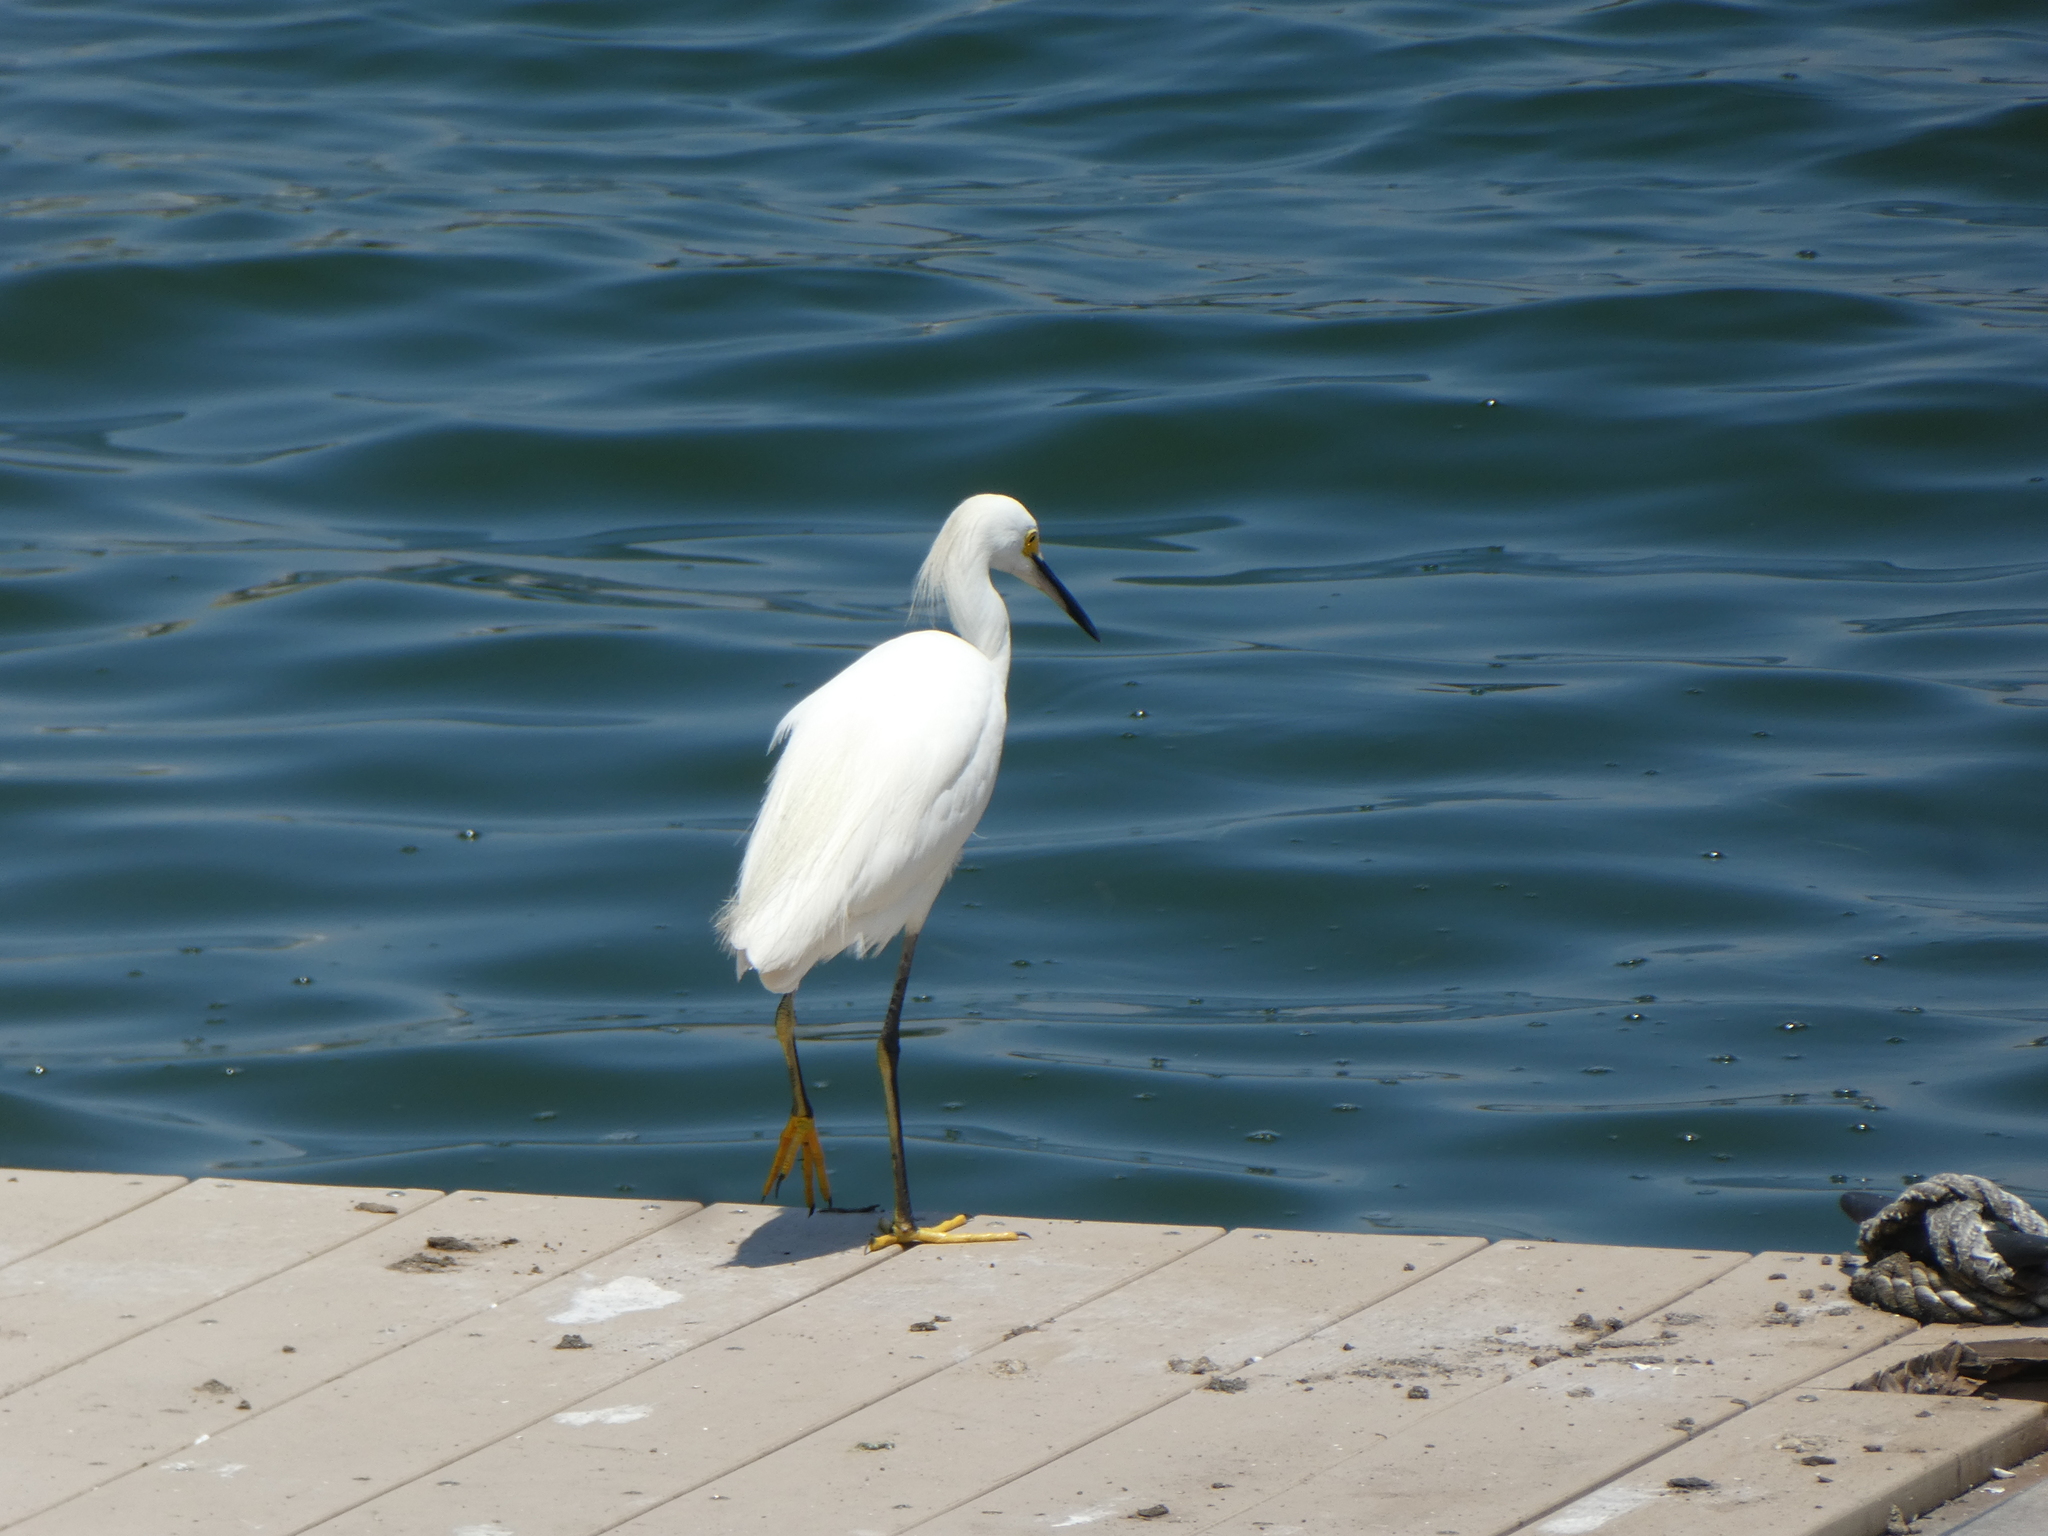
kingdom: Animalia
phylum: Chordata
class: Aves
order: Pelecaniformes
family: Ardeidae
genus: Egretta
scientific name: Egretta thula
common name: Snowy egret
